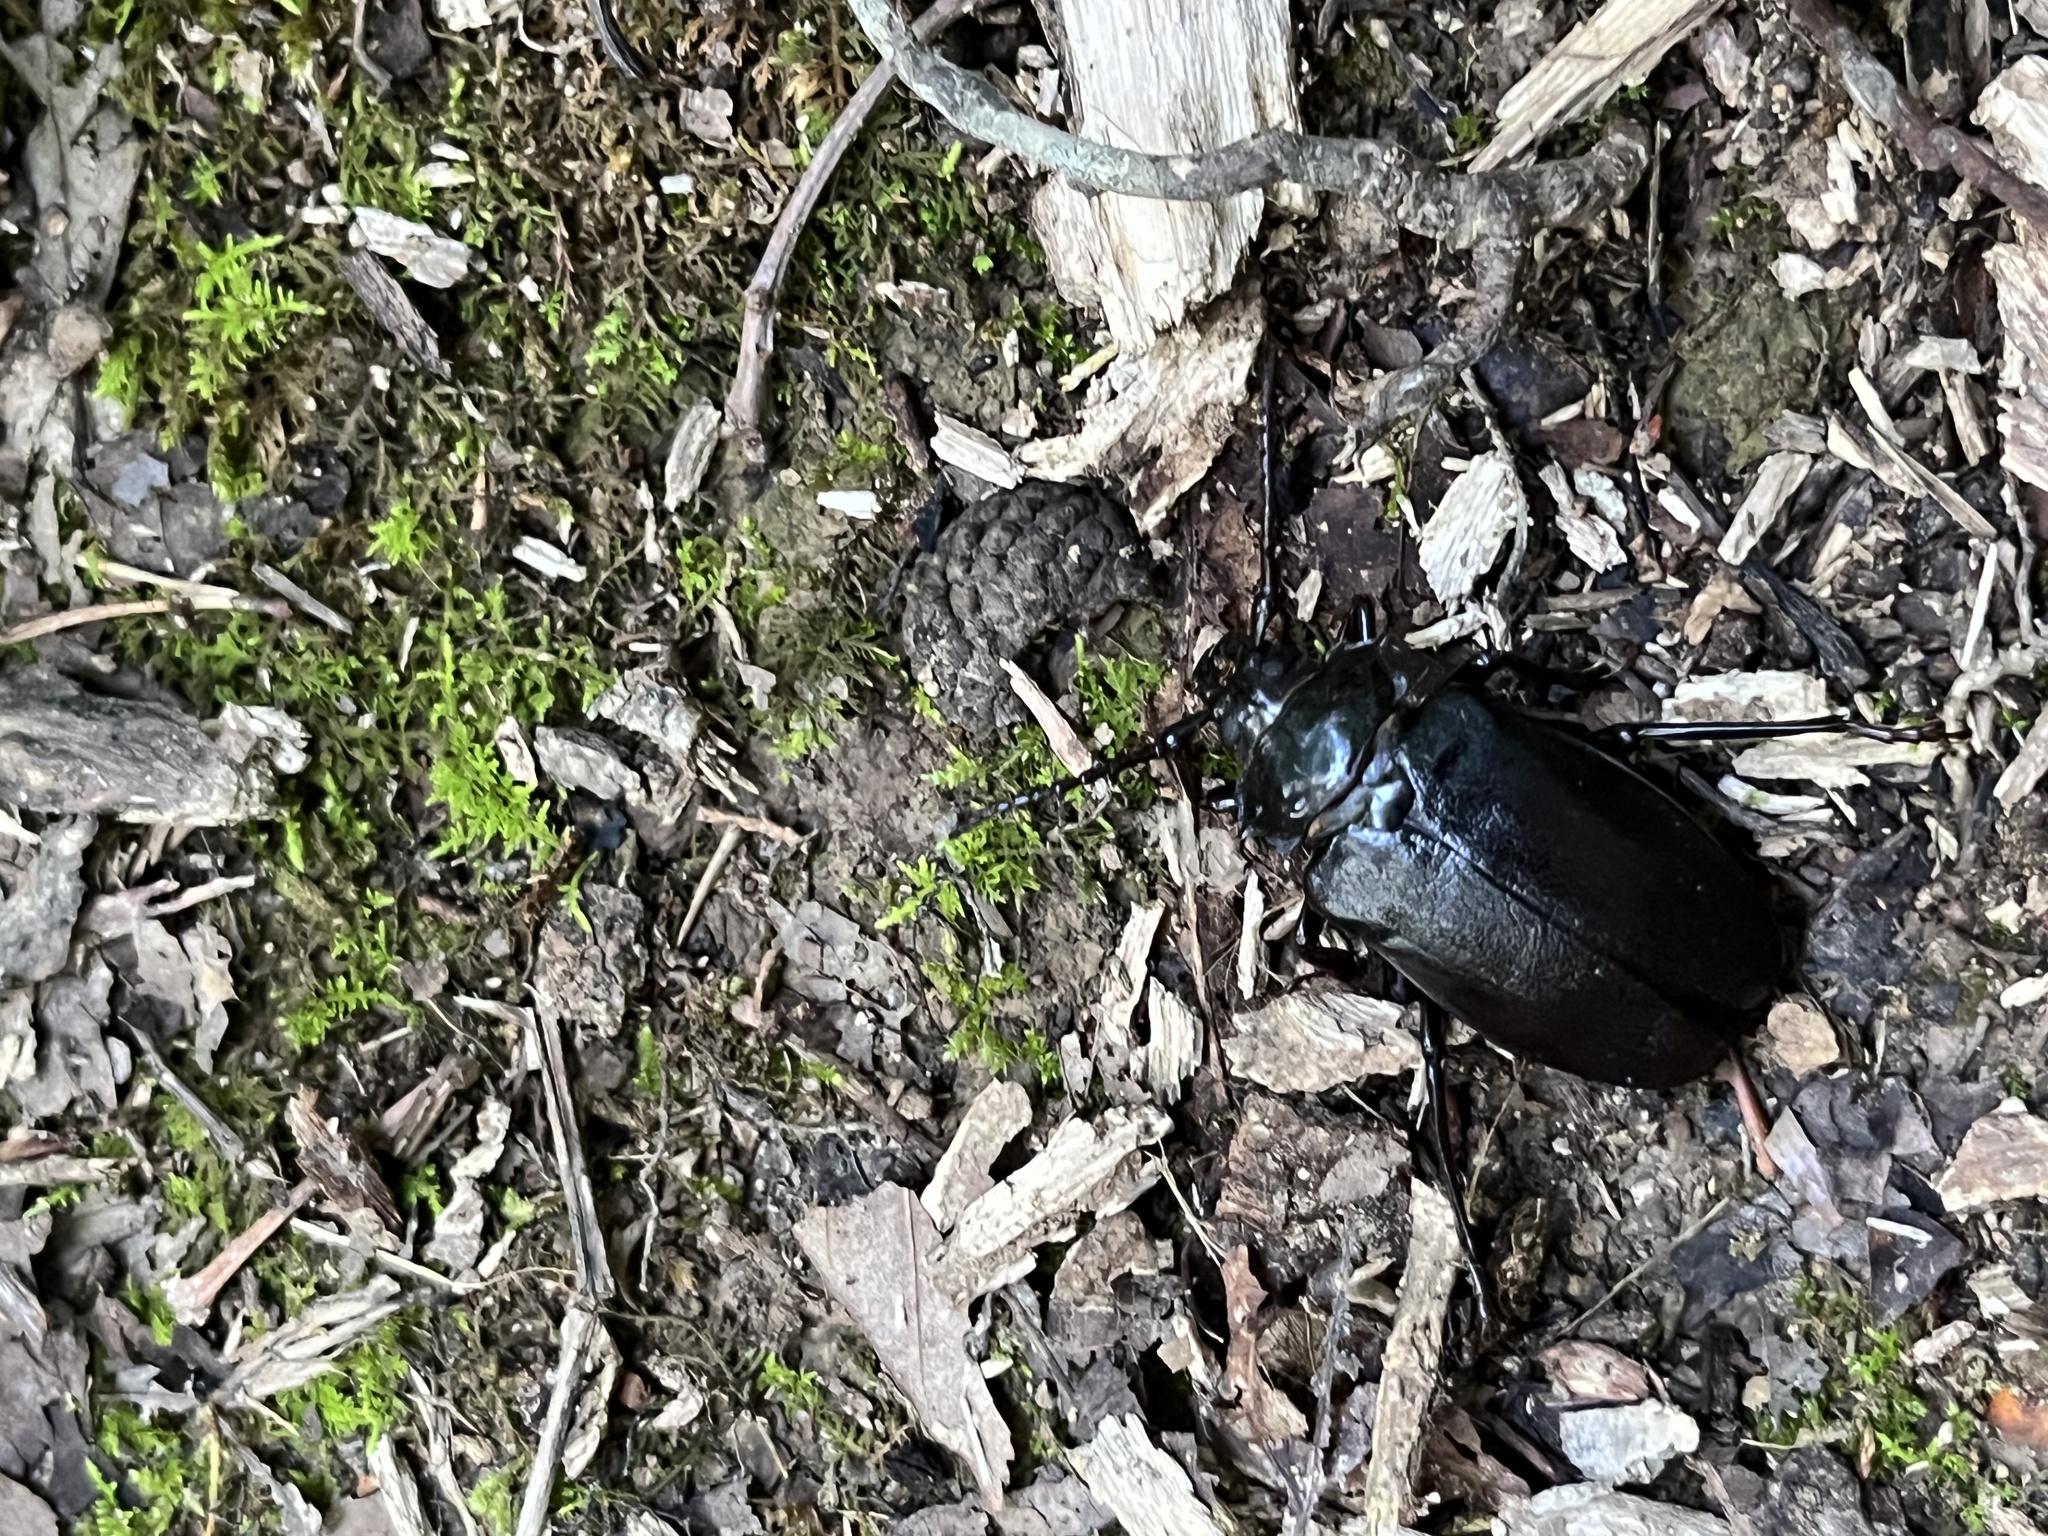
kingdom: Animalia
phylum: Arthropoda
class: Insecta
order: Coleoptera
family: Cerambycidae
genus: Prionus
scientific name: Prionus laticollis
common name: Broad necked prionus
